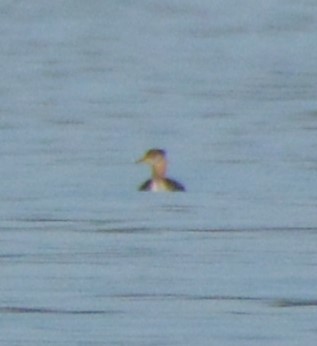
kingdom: Animalia
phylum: Chordata
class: Aves
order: Podicipediformes
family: Podicipedidae
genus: Podiceps
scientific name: Podiceps grisegena
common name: Red-necked grebe
